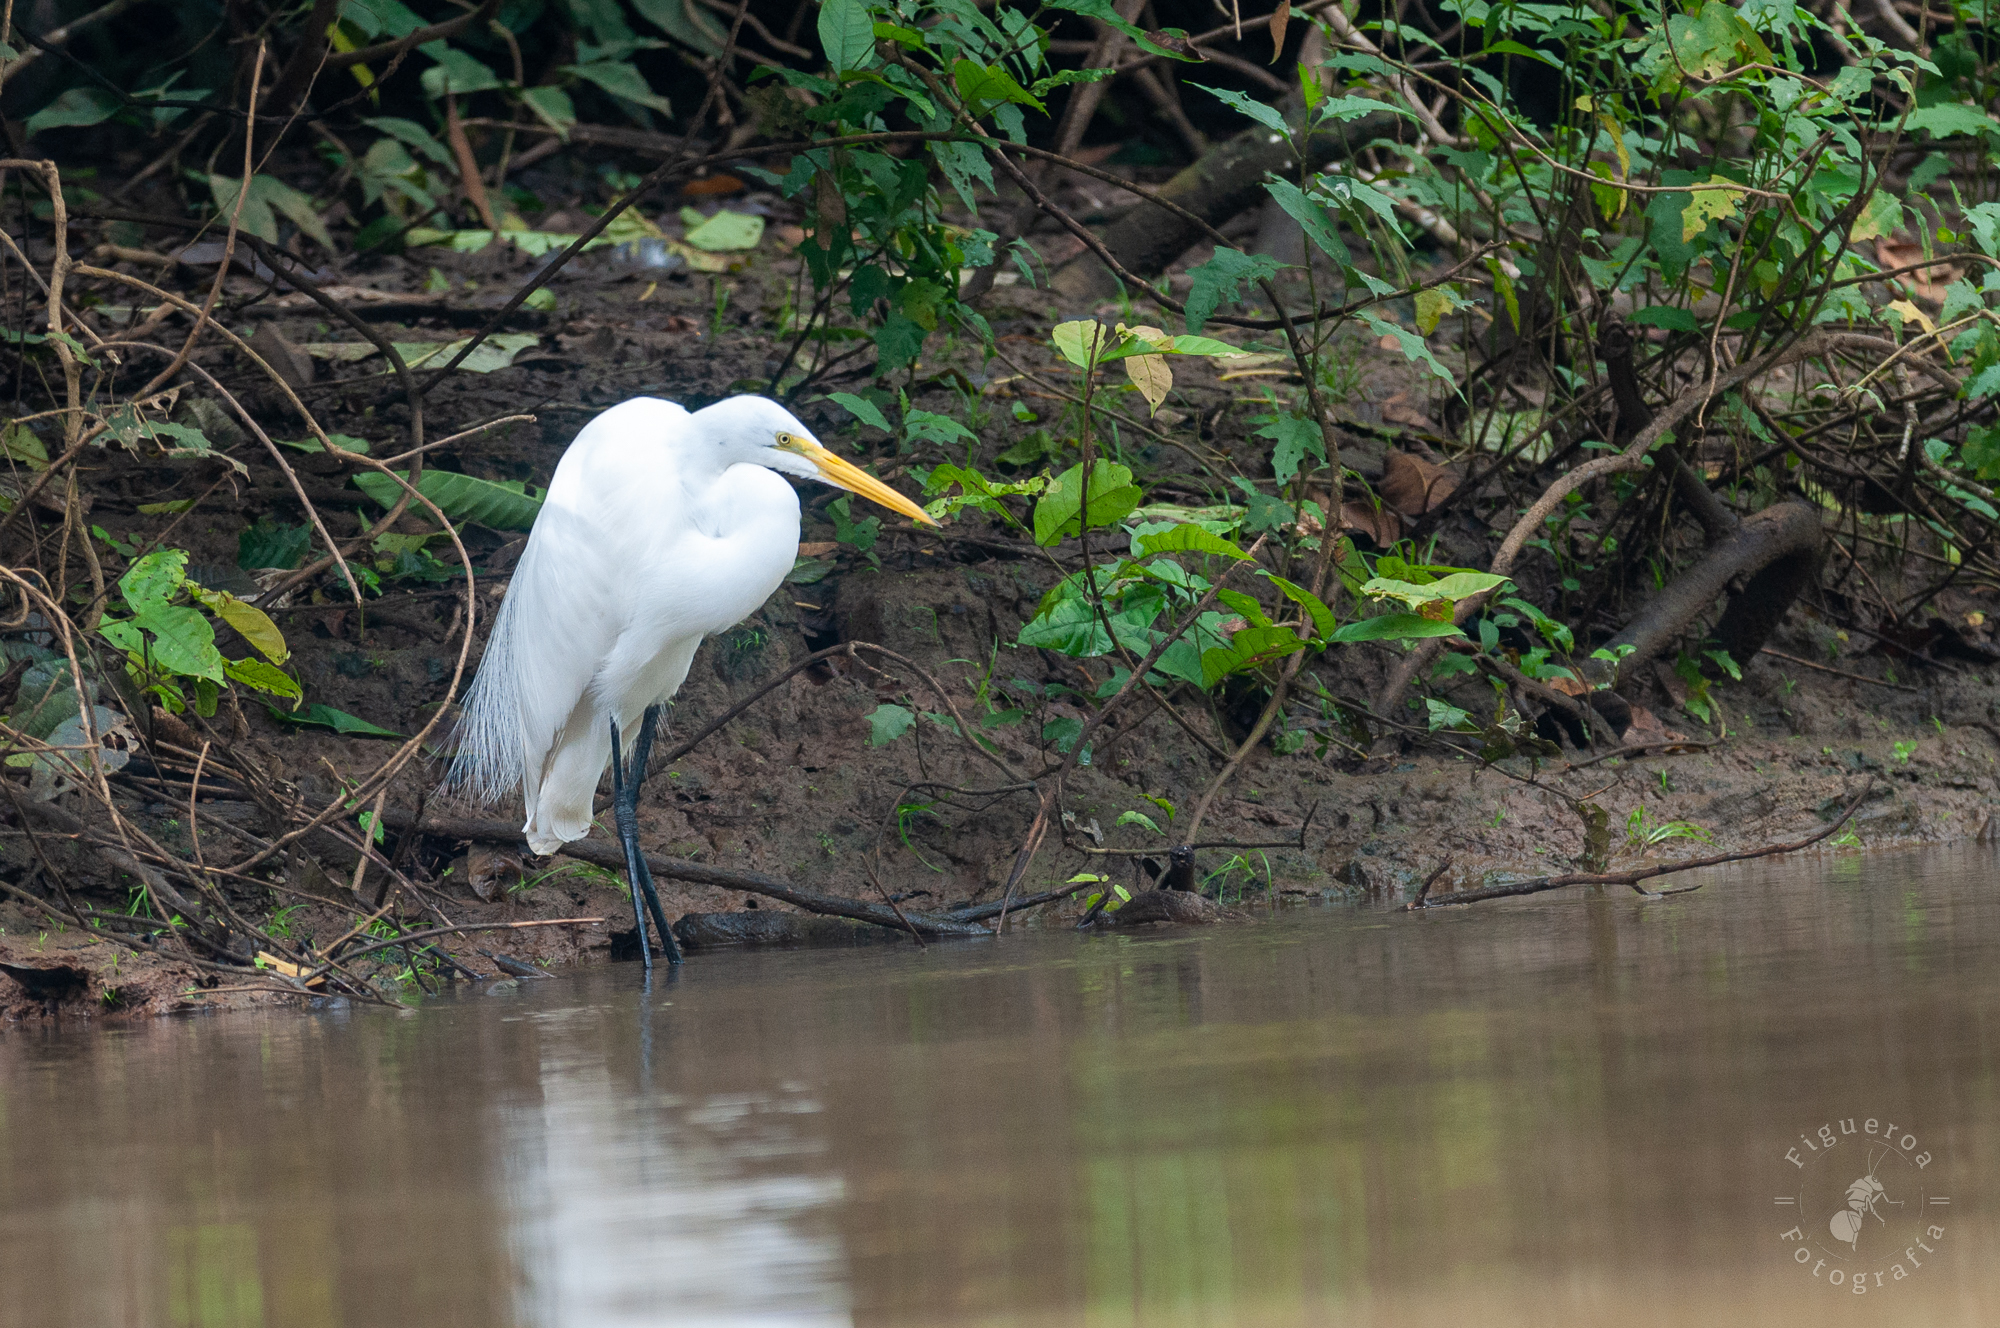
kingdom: Animalia
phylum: Chordata
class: Aves
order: Pelecaniformes
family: Ardeidae
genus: Ardea
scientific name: Ardea alba
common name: Great egret
